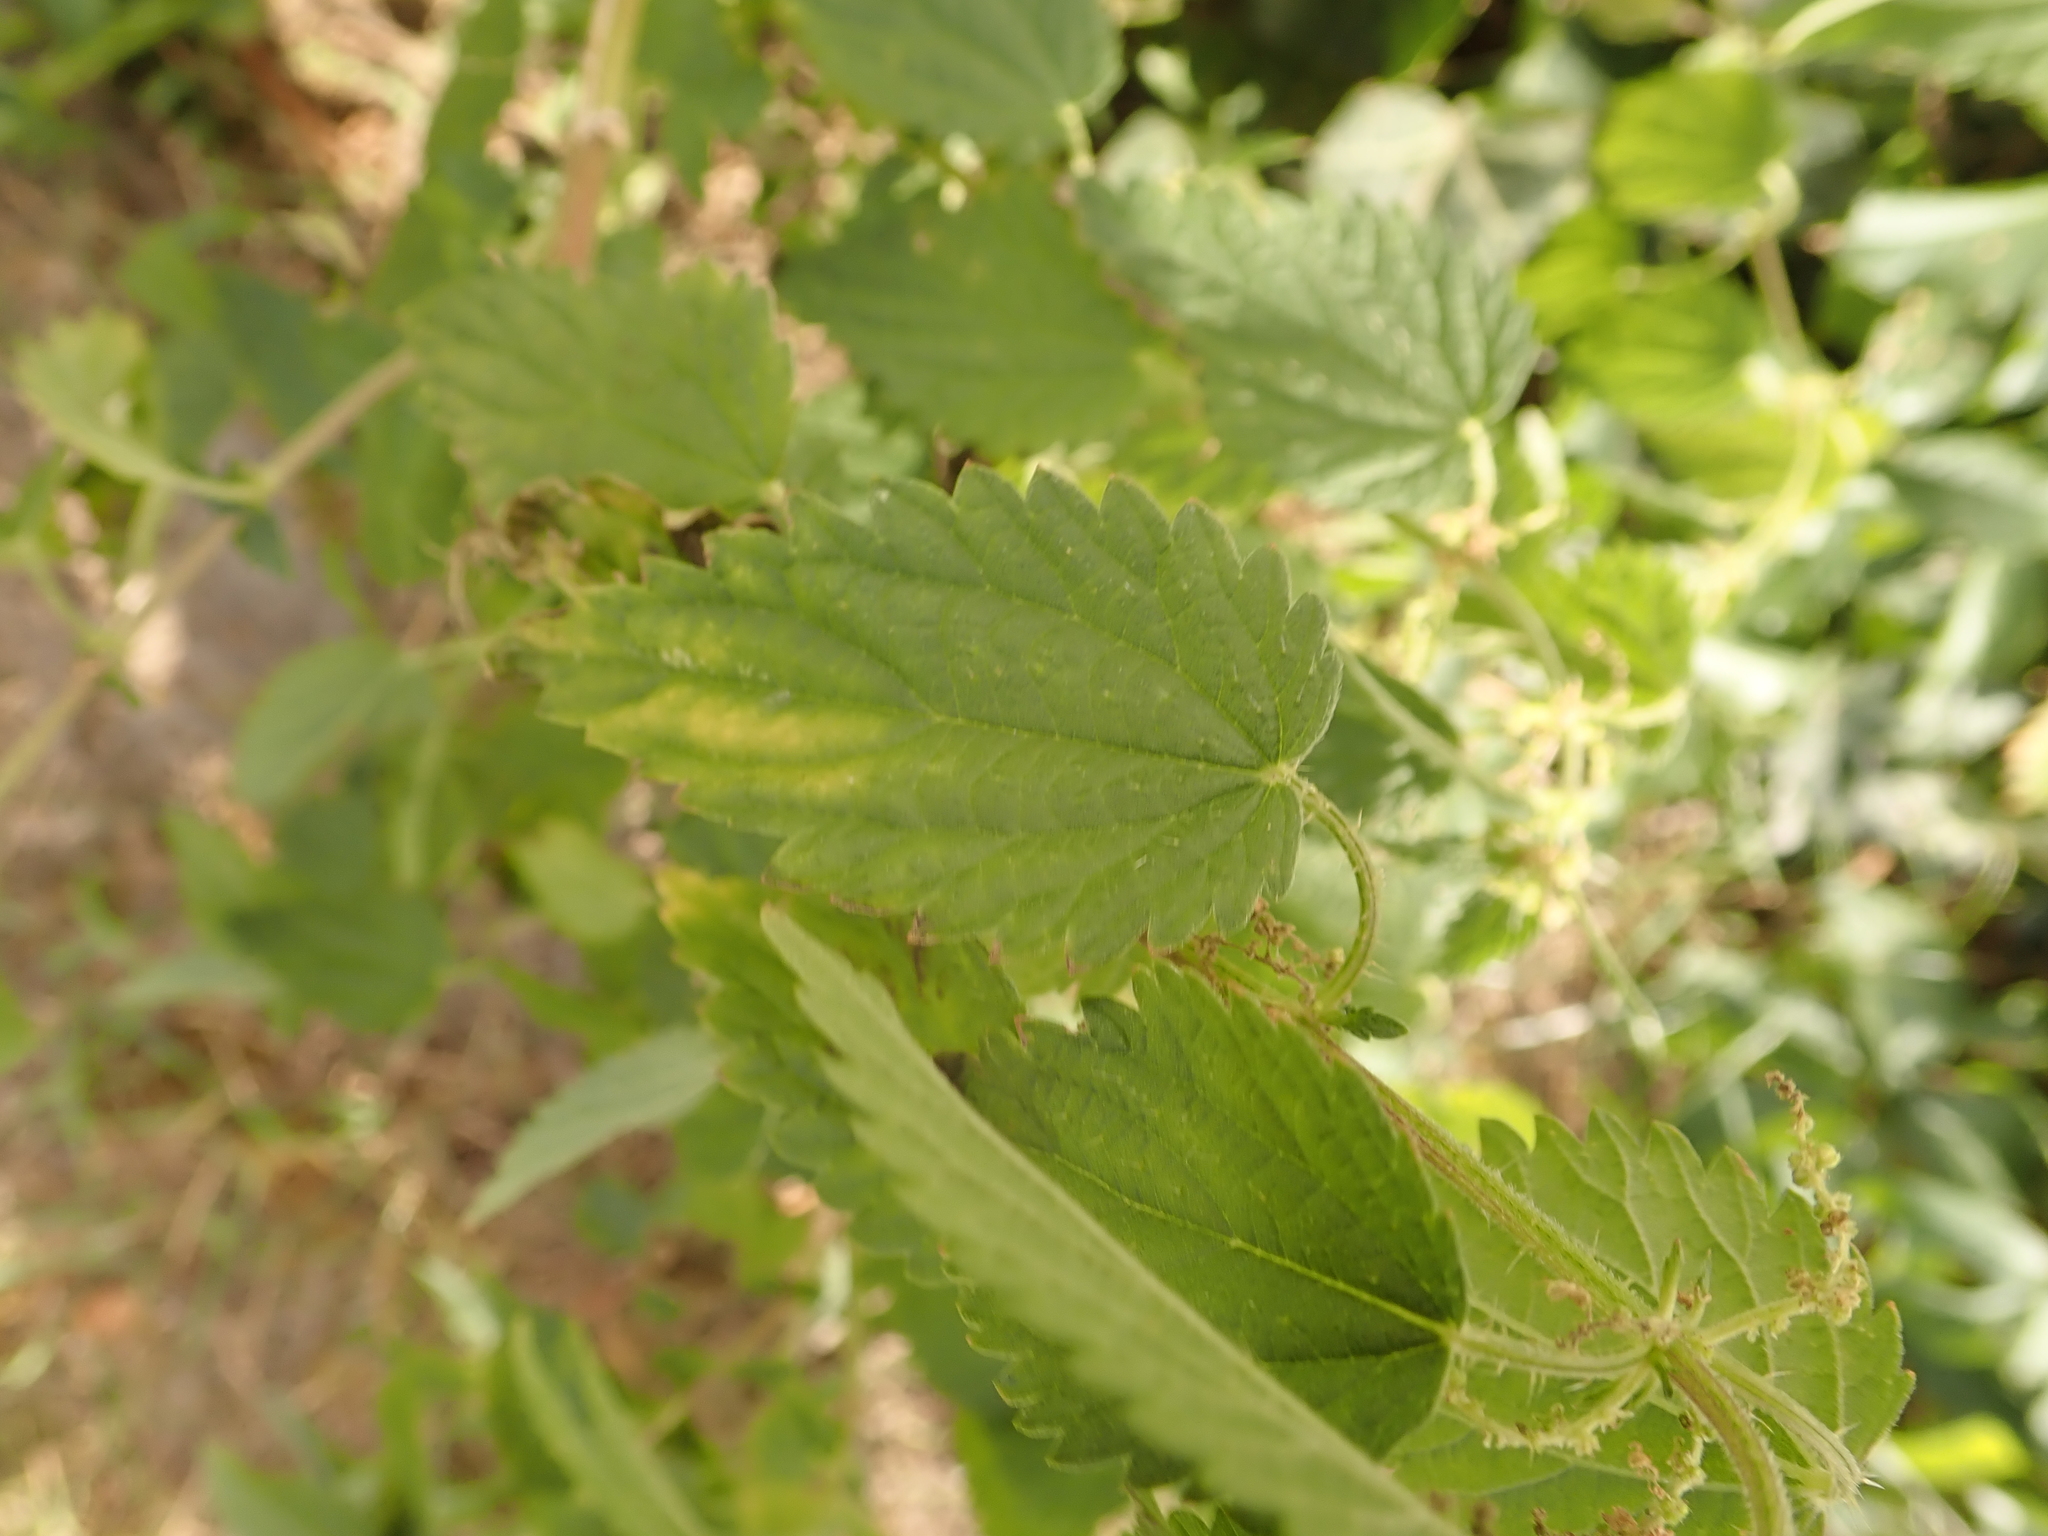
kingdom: Plantae
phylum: Tracheophyta
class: Magnoliopsida
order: Rosales
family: Urticaceae
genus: Urtica
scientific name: Urtica dioica
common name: Common nettle
